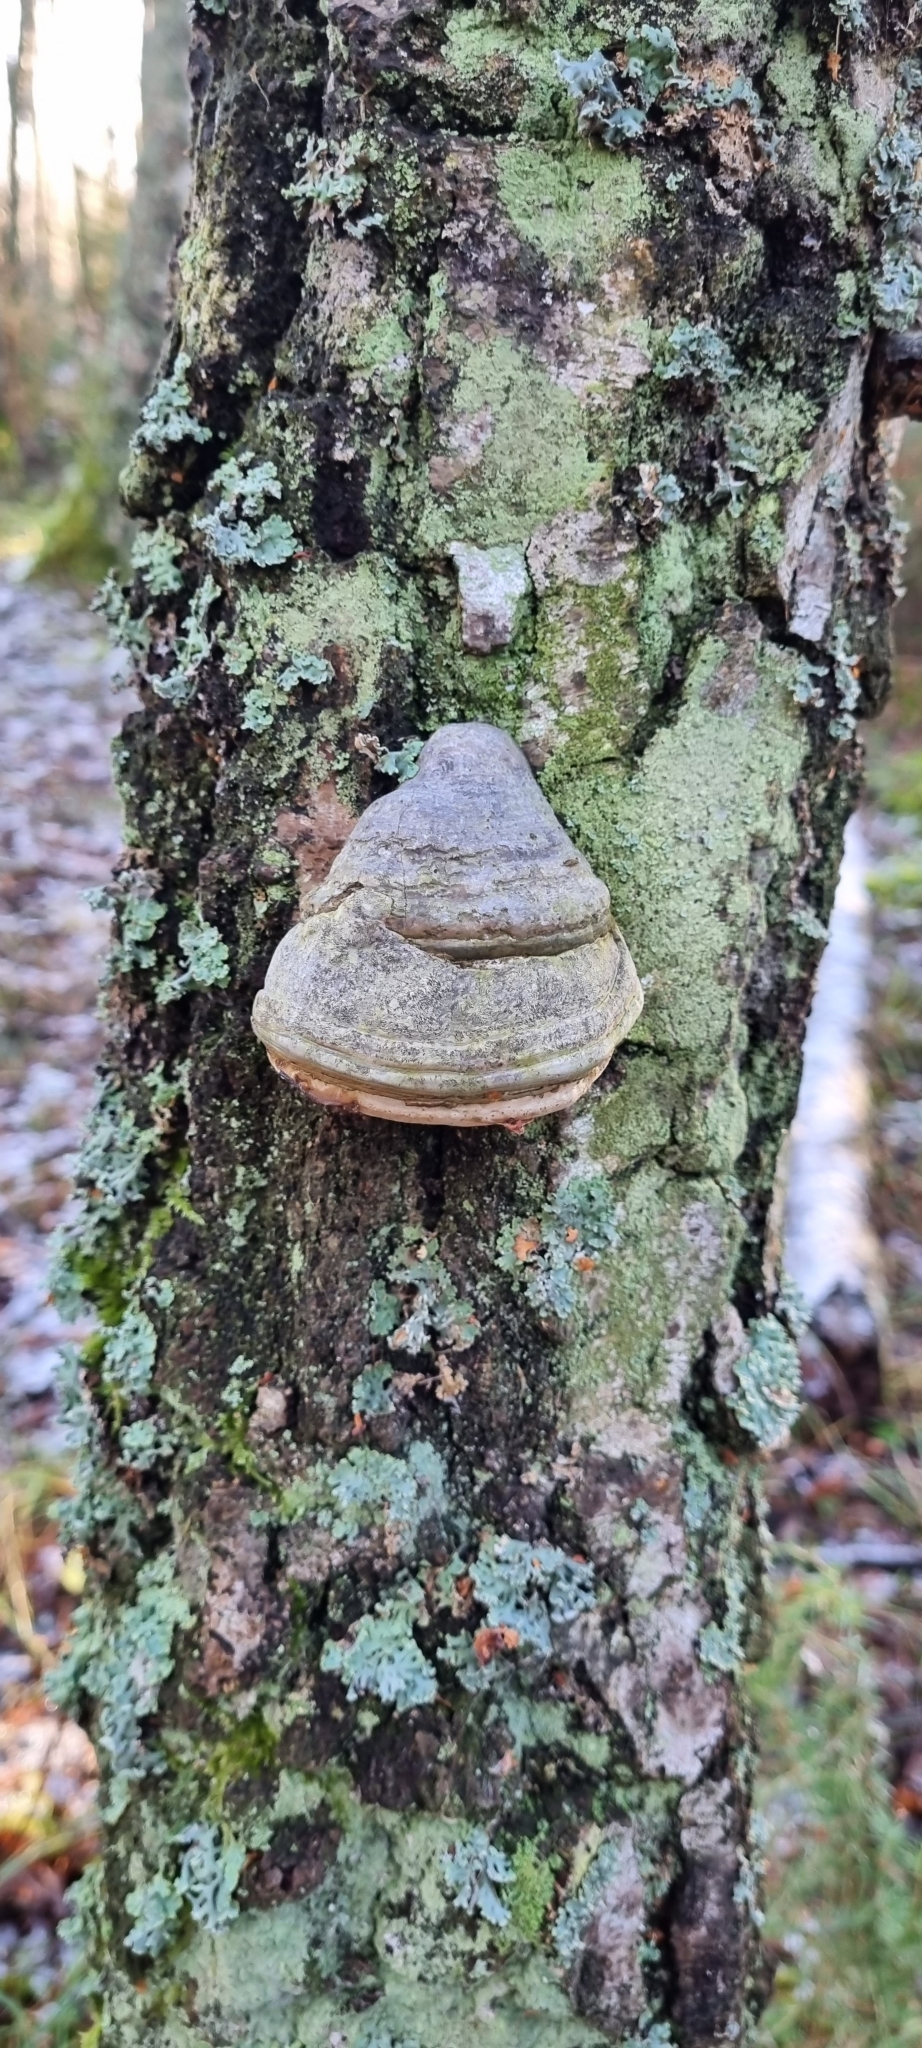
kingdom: Fungi
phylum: Basidiomycota
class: Agaricomycetes
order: Polyporales
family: Polyporaceae
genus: Fomes
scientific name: Fomes fomentarius
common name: Hoof fungus
